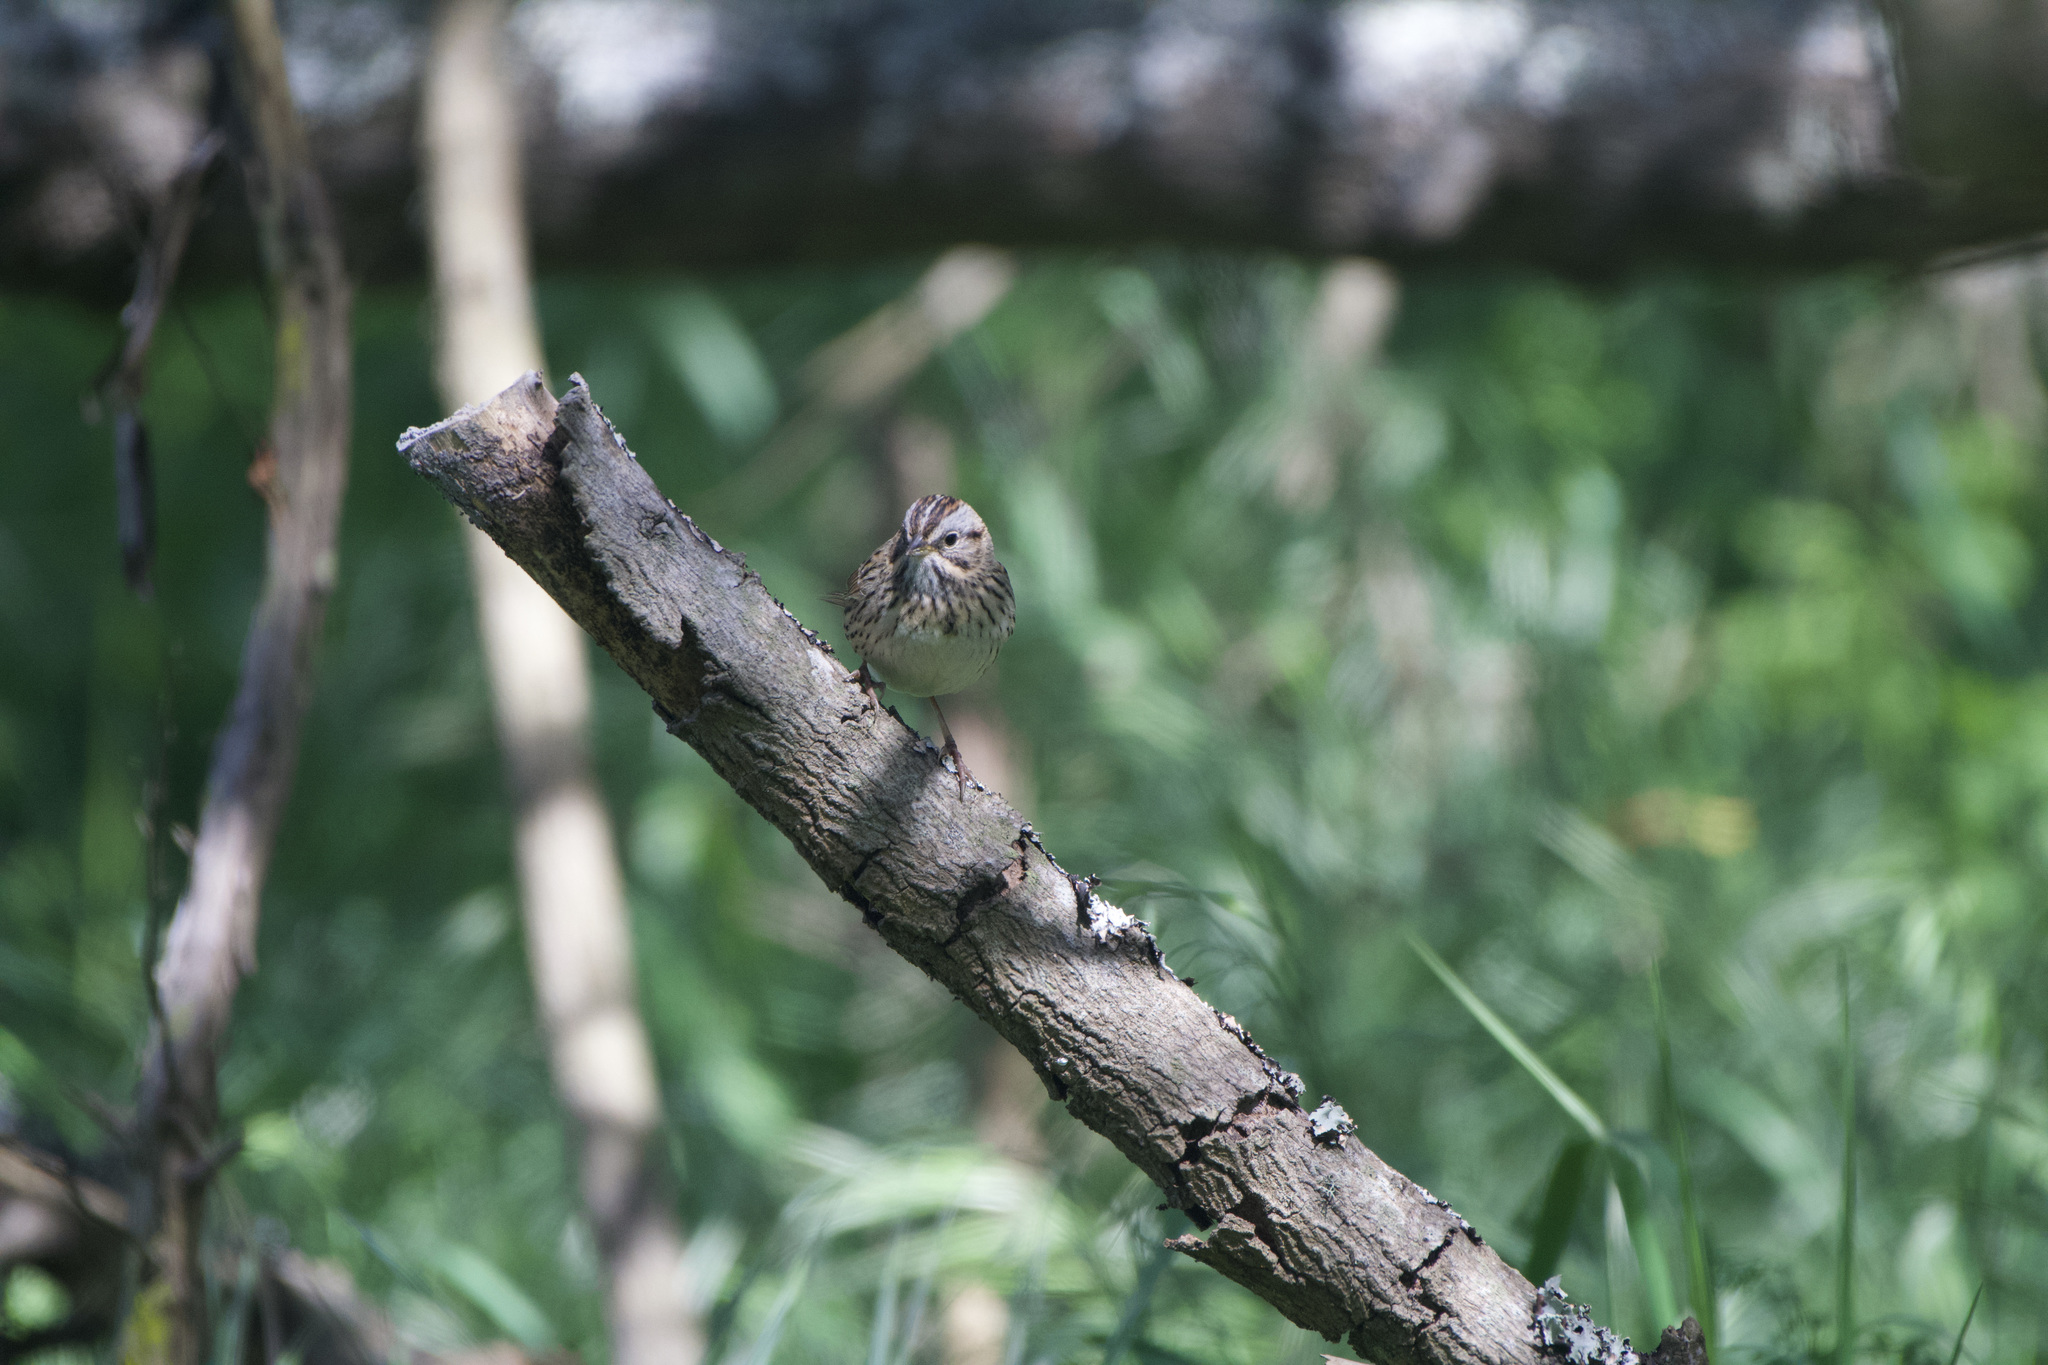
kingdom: Animalia
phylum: Chordata
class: Aves
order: Passeriformes
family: Passerellidae
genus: Melospiza
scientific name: Melospiza lincolnii
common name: Lincoln's sparrow
